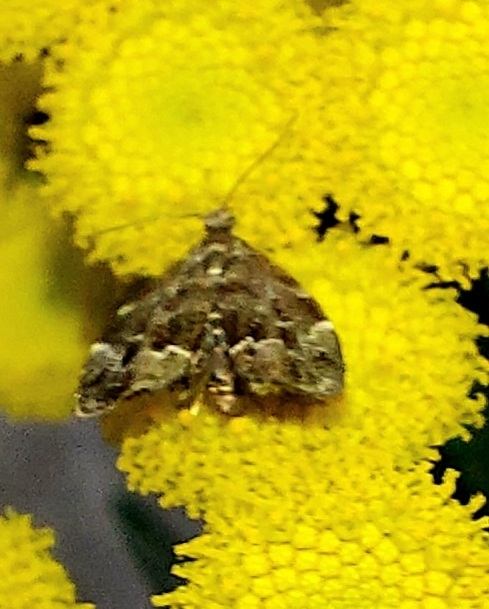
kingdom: Animalia
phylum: Arthropoda
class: Insecta
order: Lepidoptera
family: Choreutidae
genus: Anthophila
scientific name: Anthophila fabriciana
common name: Nettle-tap
